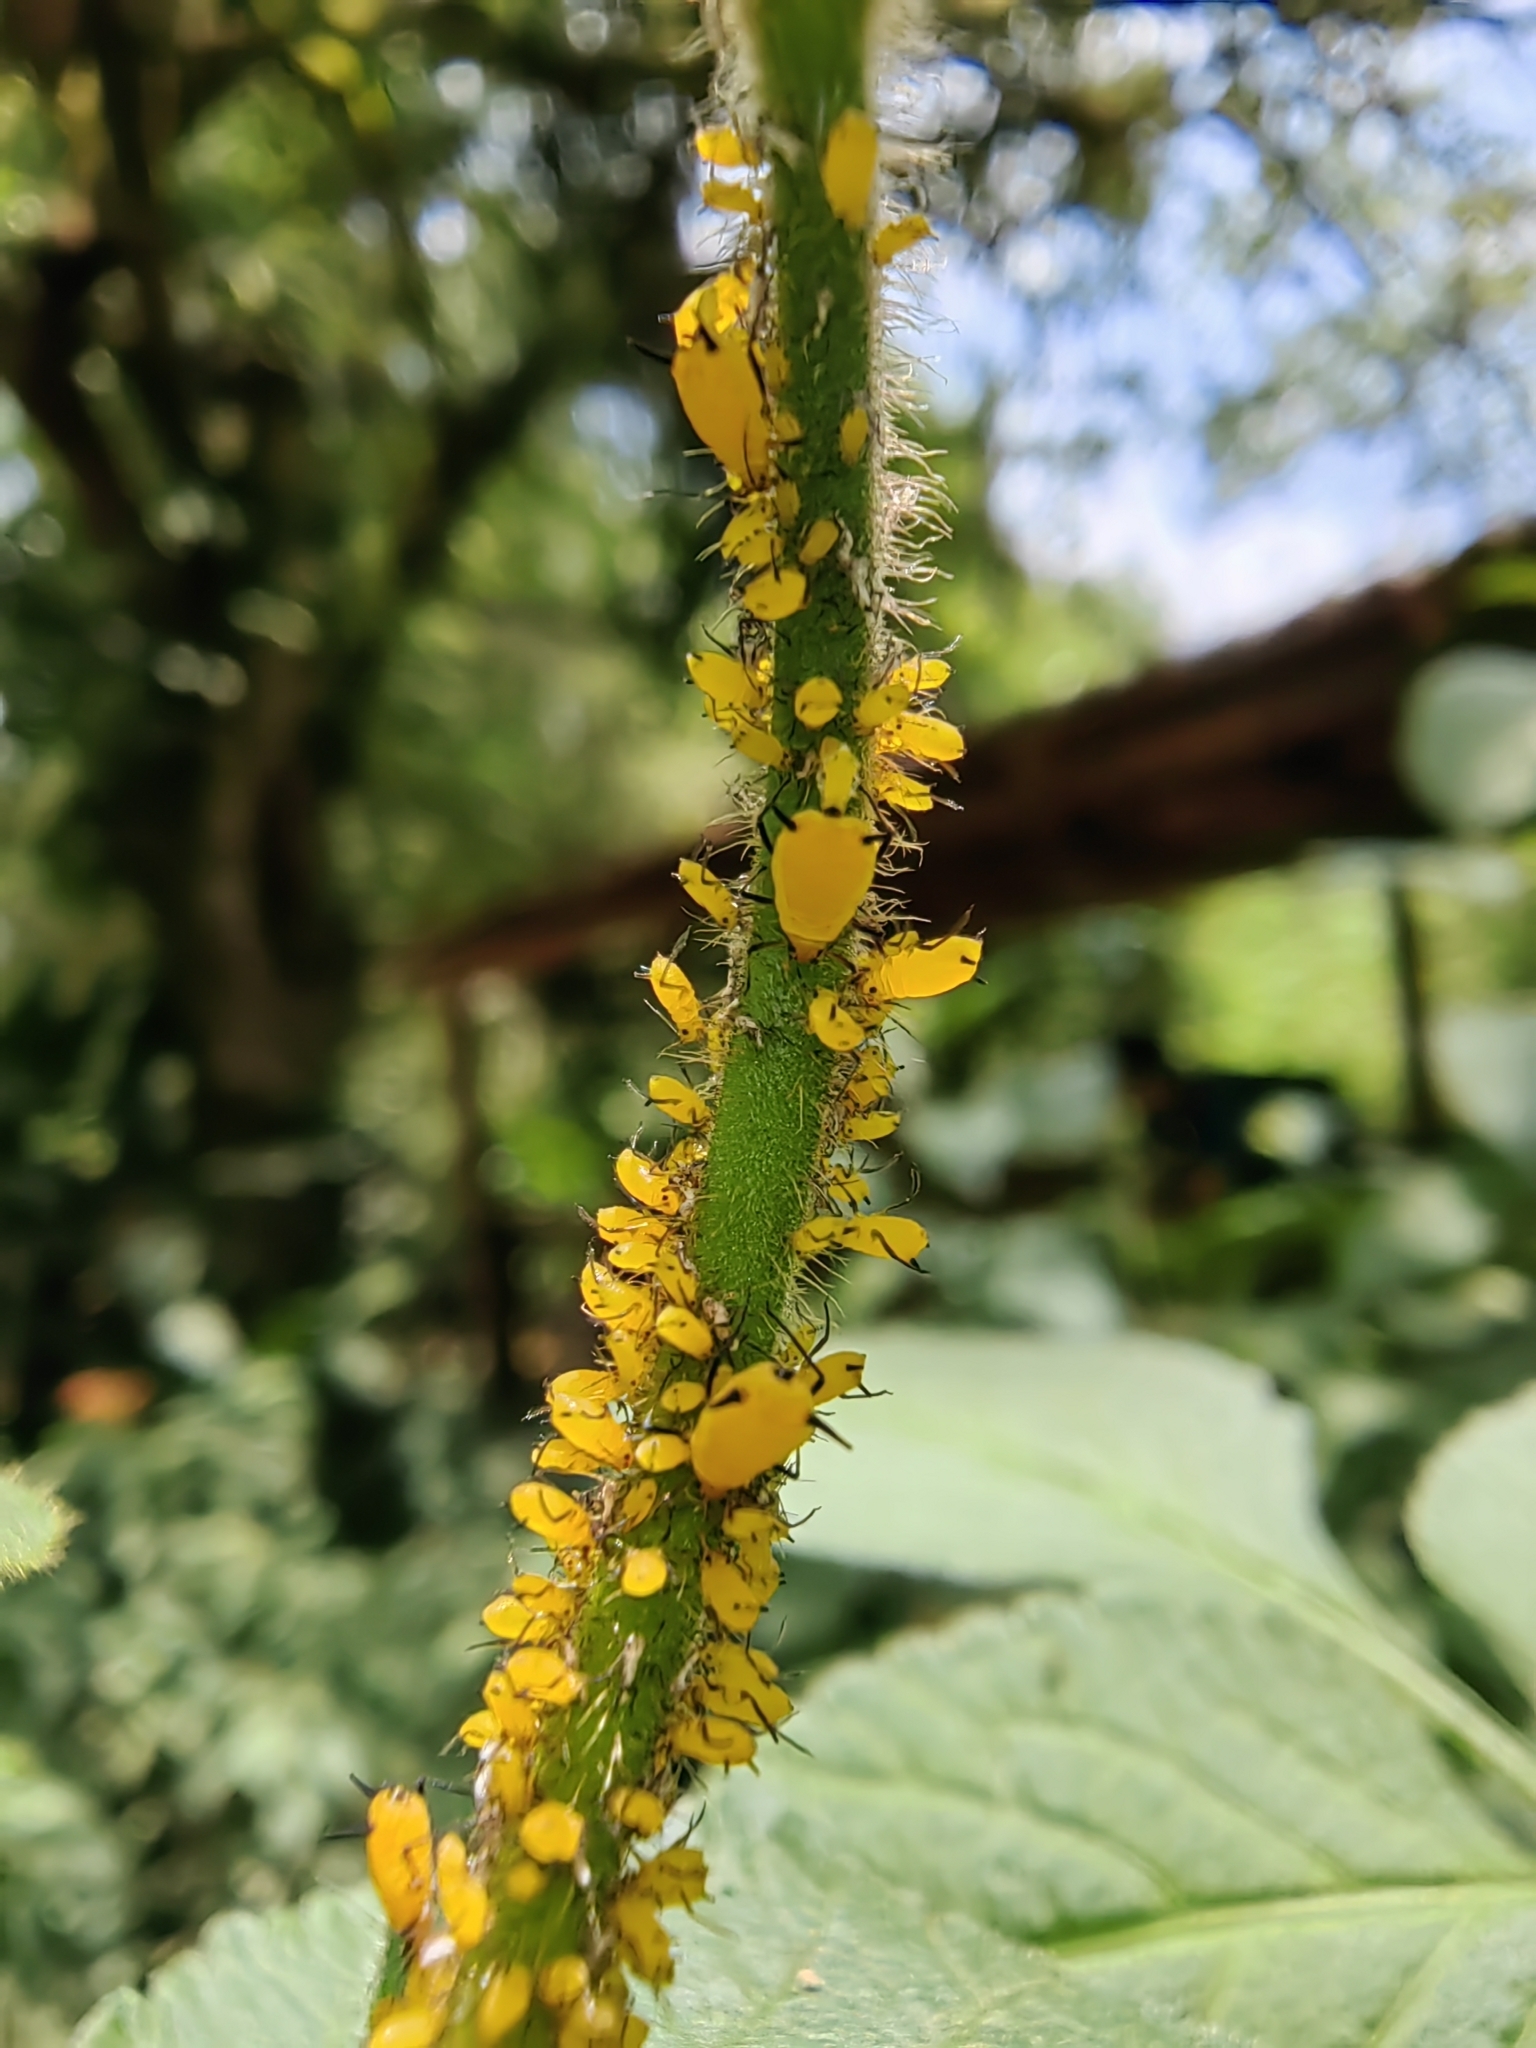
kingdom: Animalia
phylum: Arthropoda
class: Insecta
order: Hemiptera
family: Aphididae
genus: Aphis
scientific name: Aphis nerii
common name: Oleander aphid
